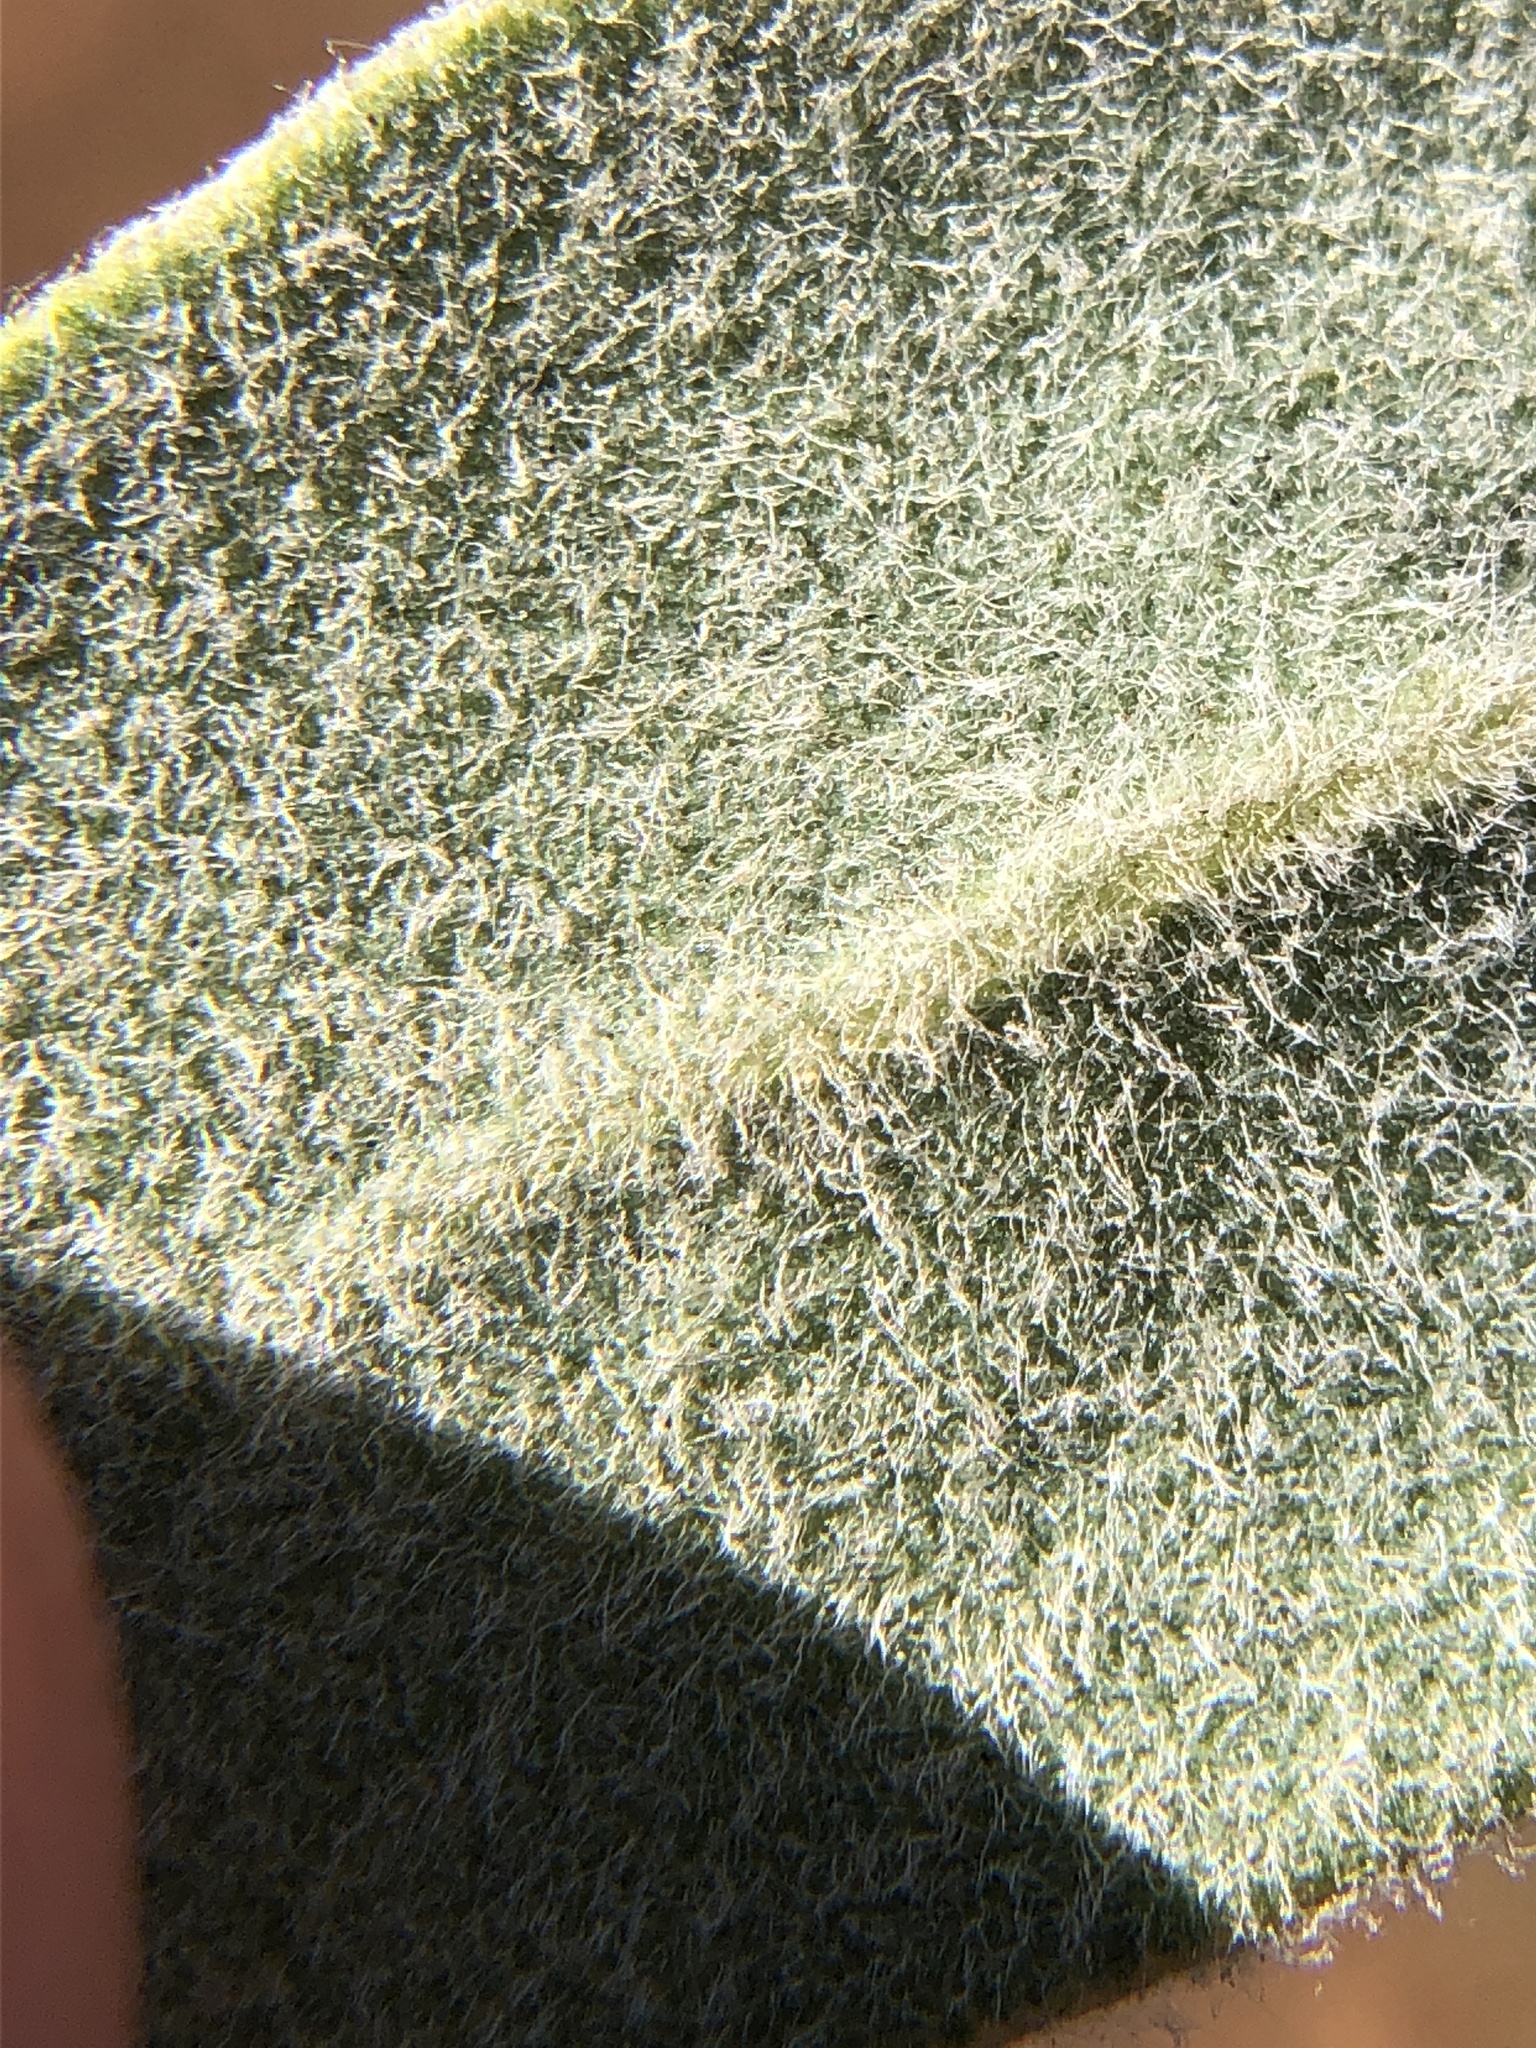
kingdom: Plantae
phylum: Tracheophyta
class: Magnoliopsida
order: Ericales
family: Ericaceae
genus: Arctostaphylos
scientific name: Arctostaphylos crustacea
